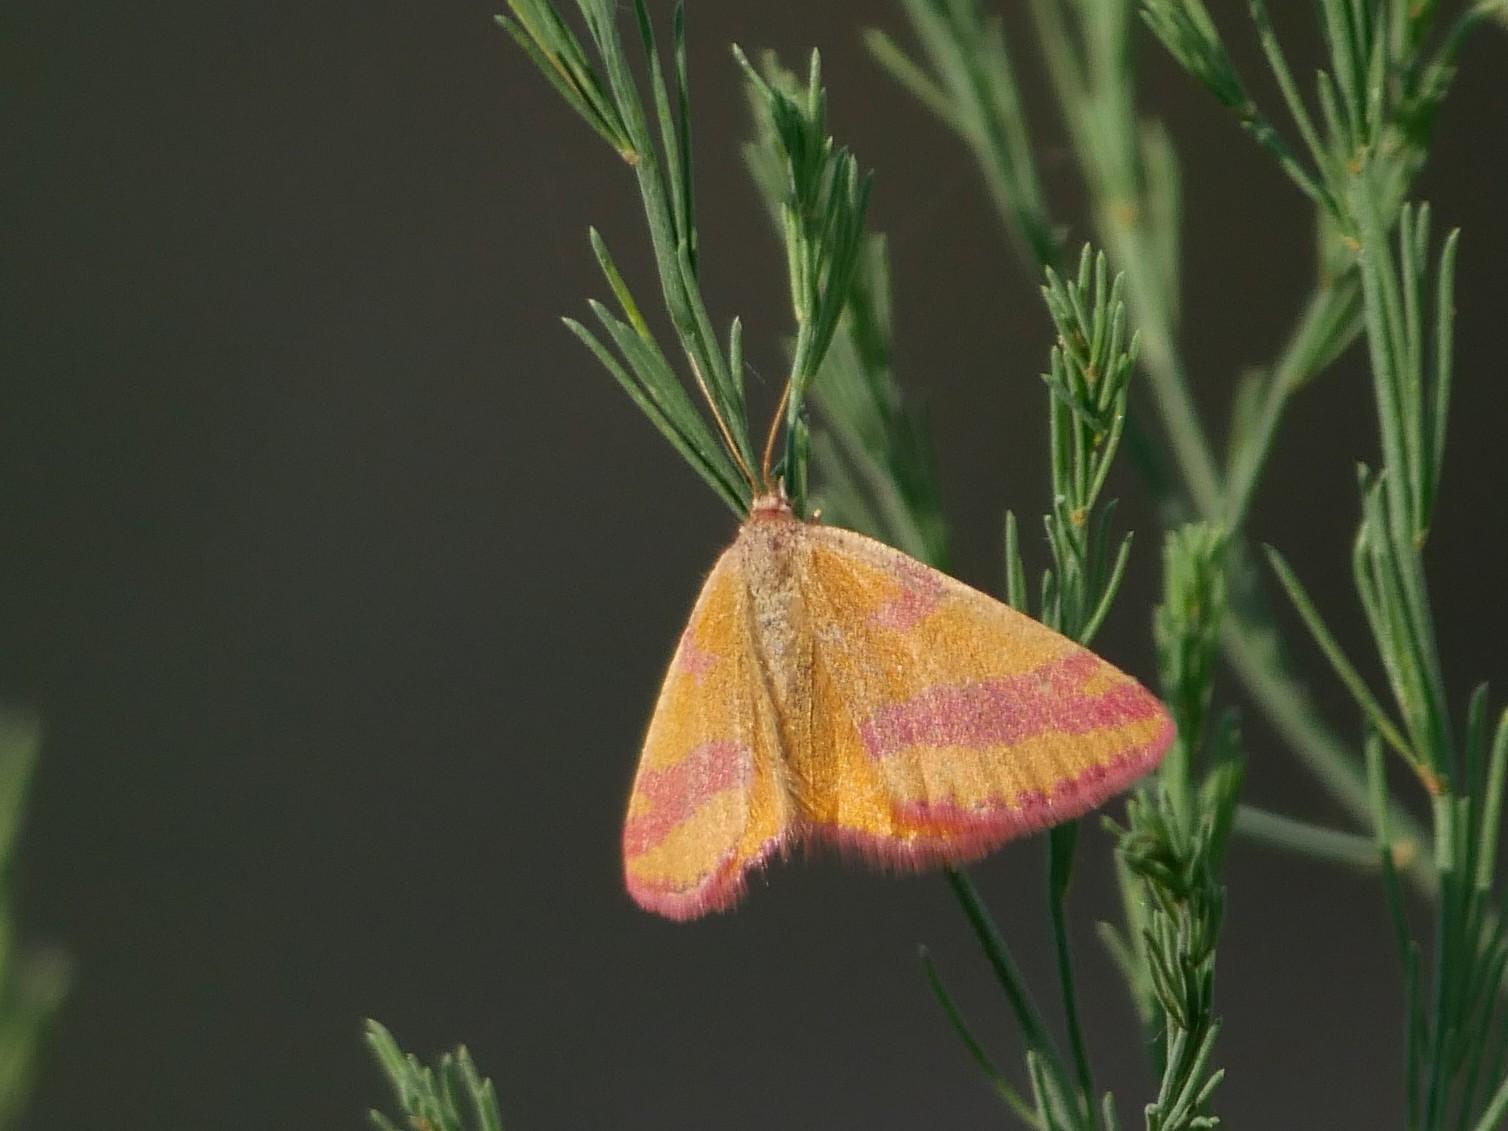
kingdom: Animalia
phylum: Arthropoda
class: Insecta
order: Lepidoptera
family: Geometridae
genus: Lythria
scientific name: Lythria cruentaria
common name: Purple-barred yellow
